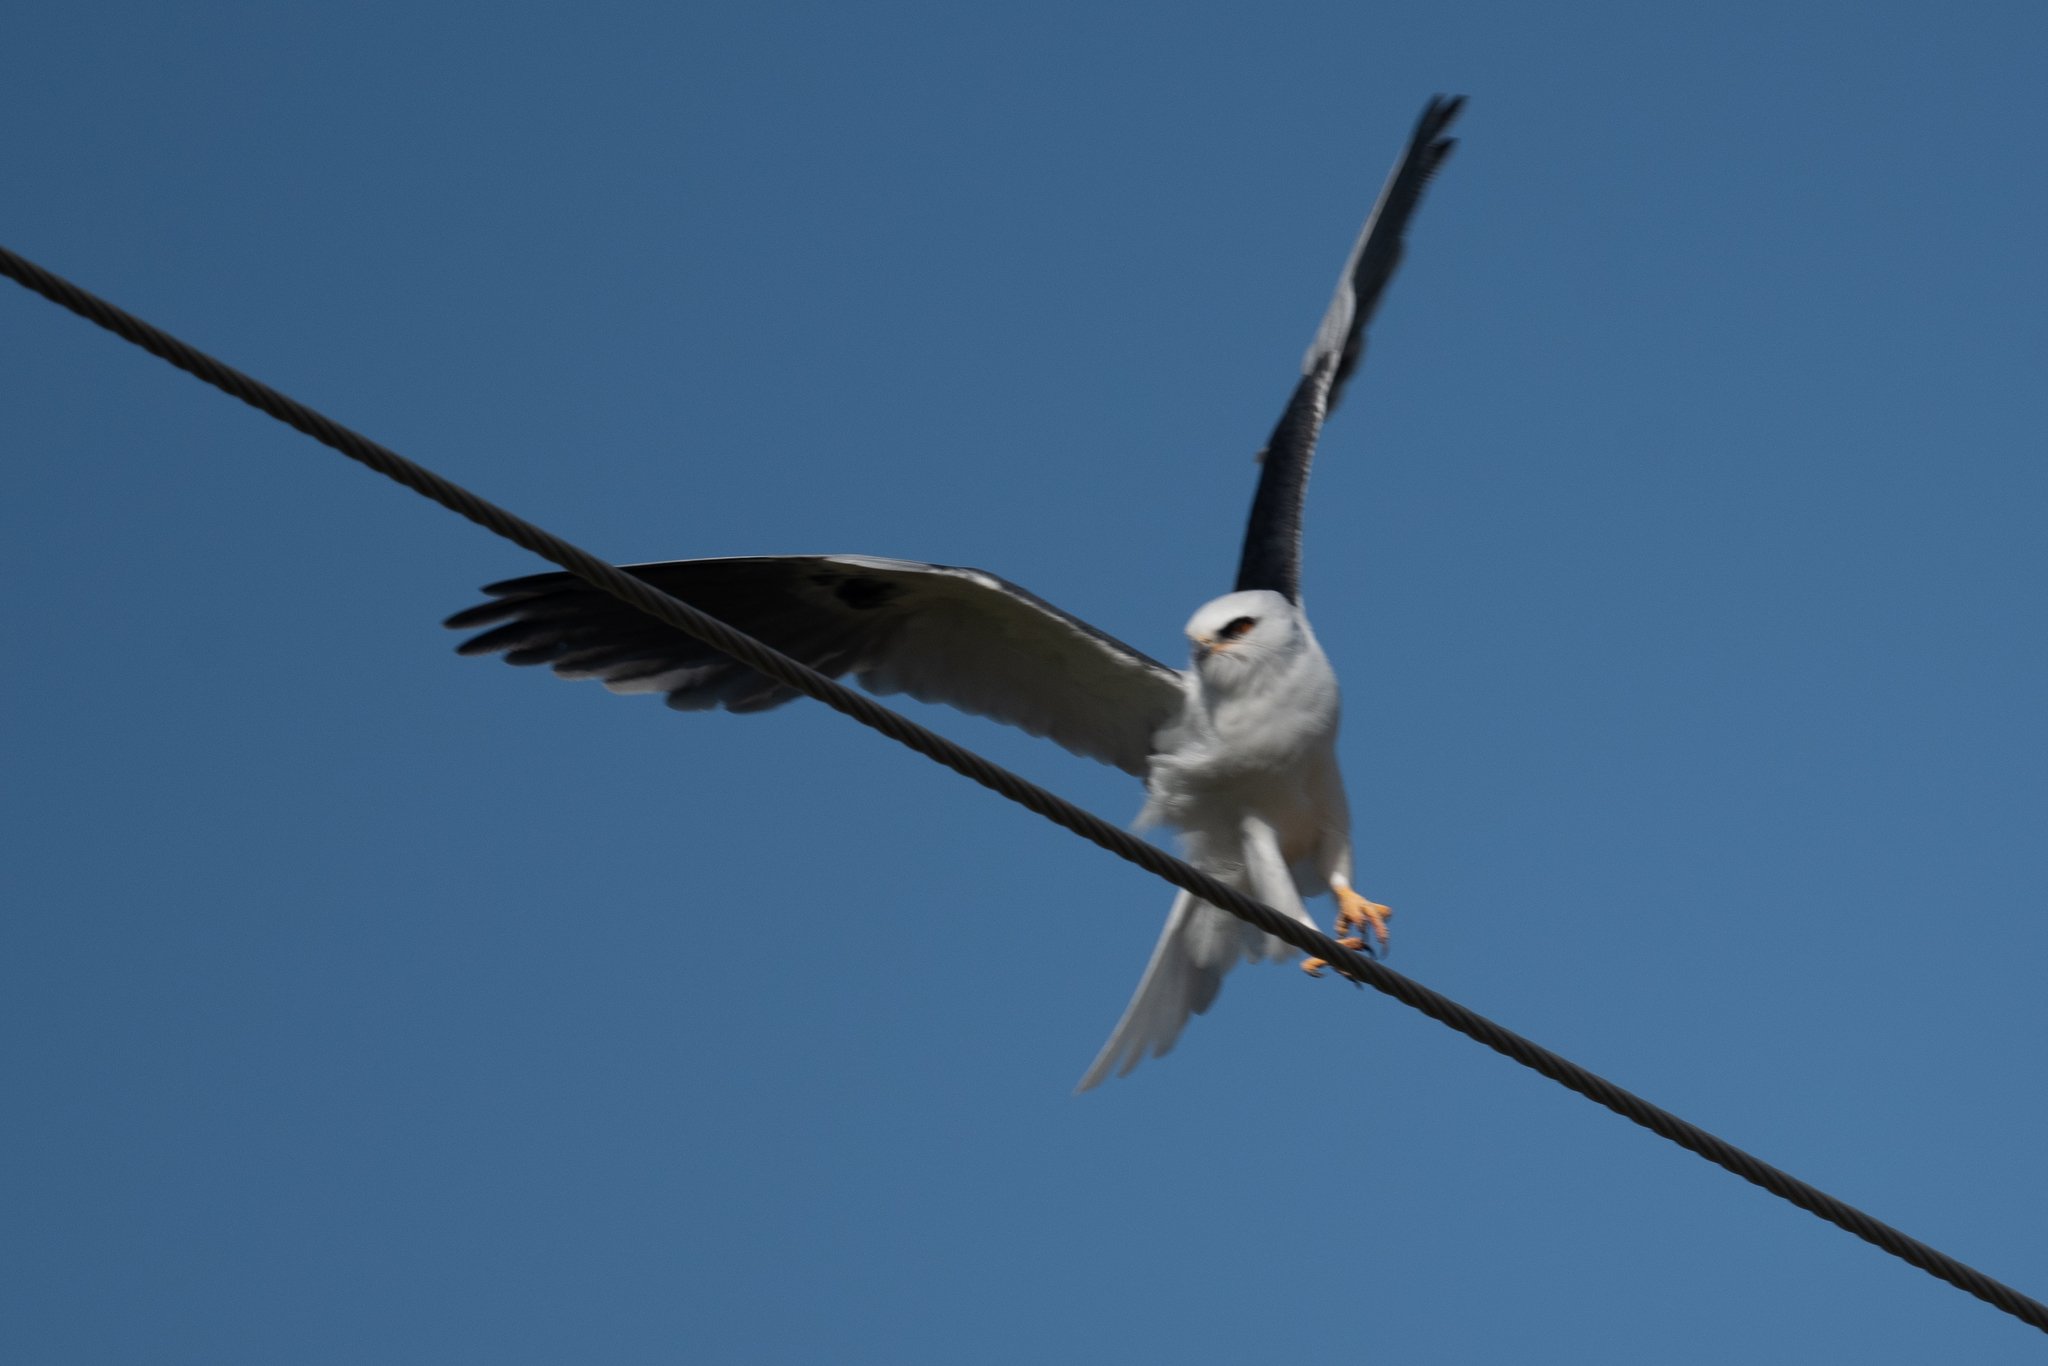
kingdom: Animalia
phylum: Chordata
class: Aves
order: Accipitriformes
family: Accipitridae
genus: Elanus
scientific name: Elanus leucurus
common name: White-tailed kite
